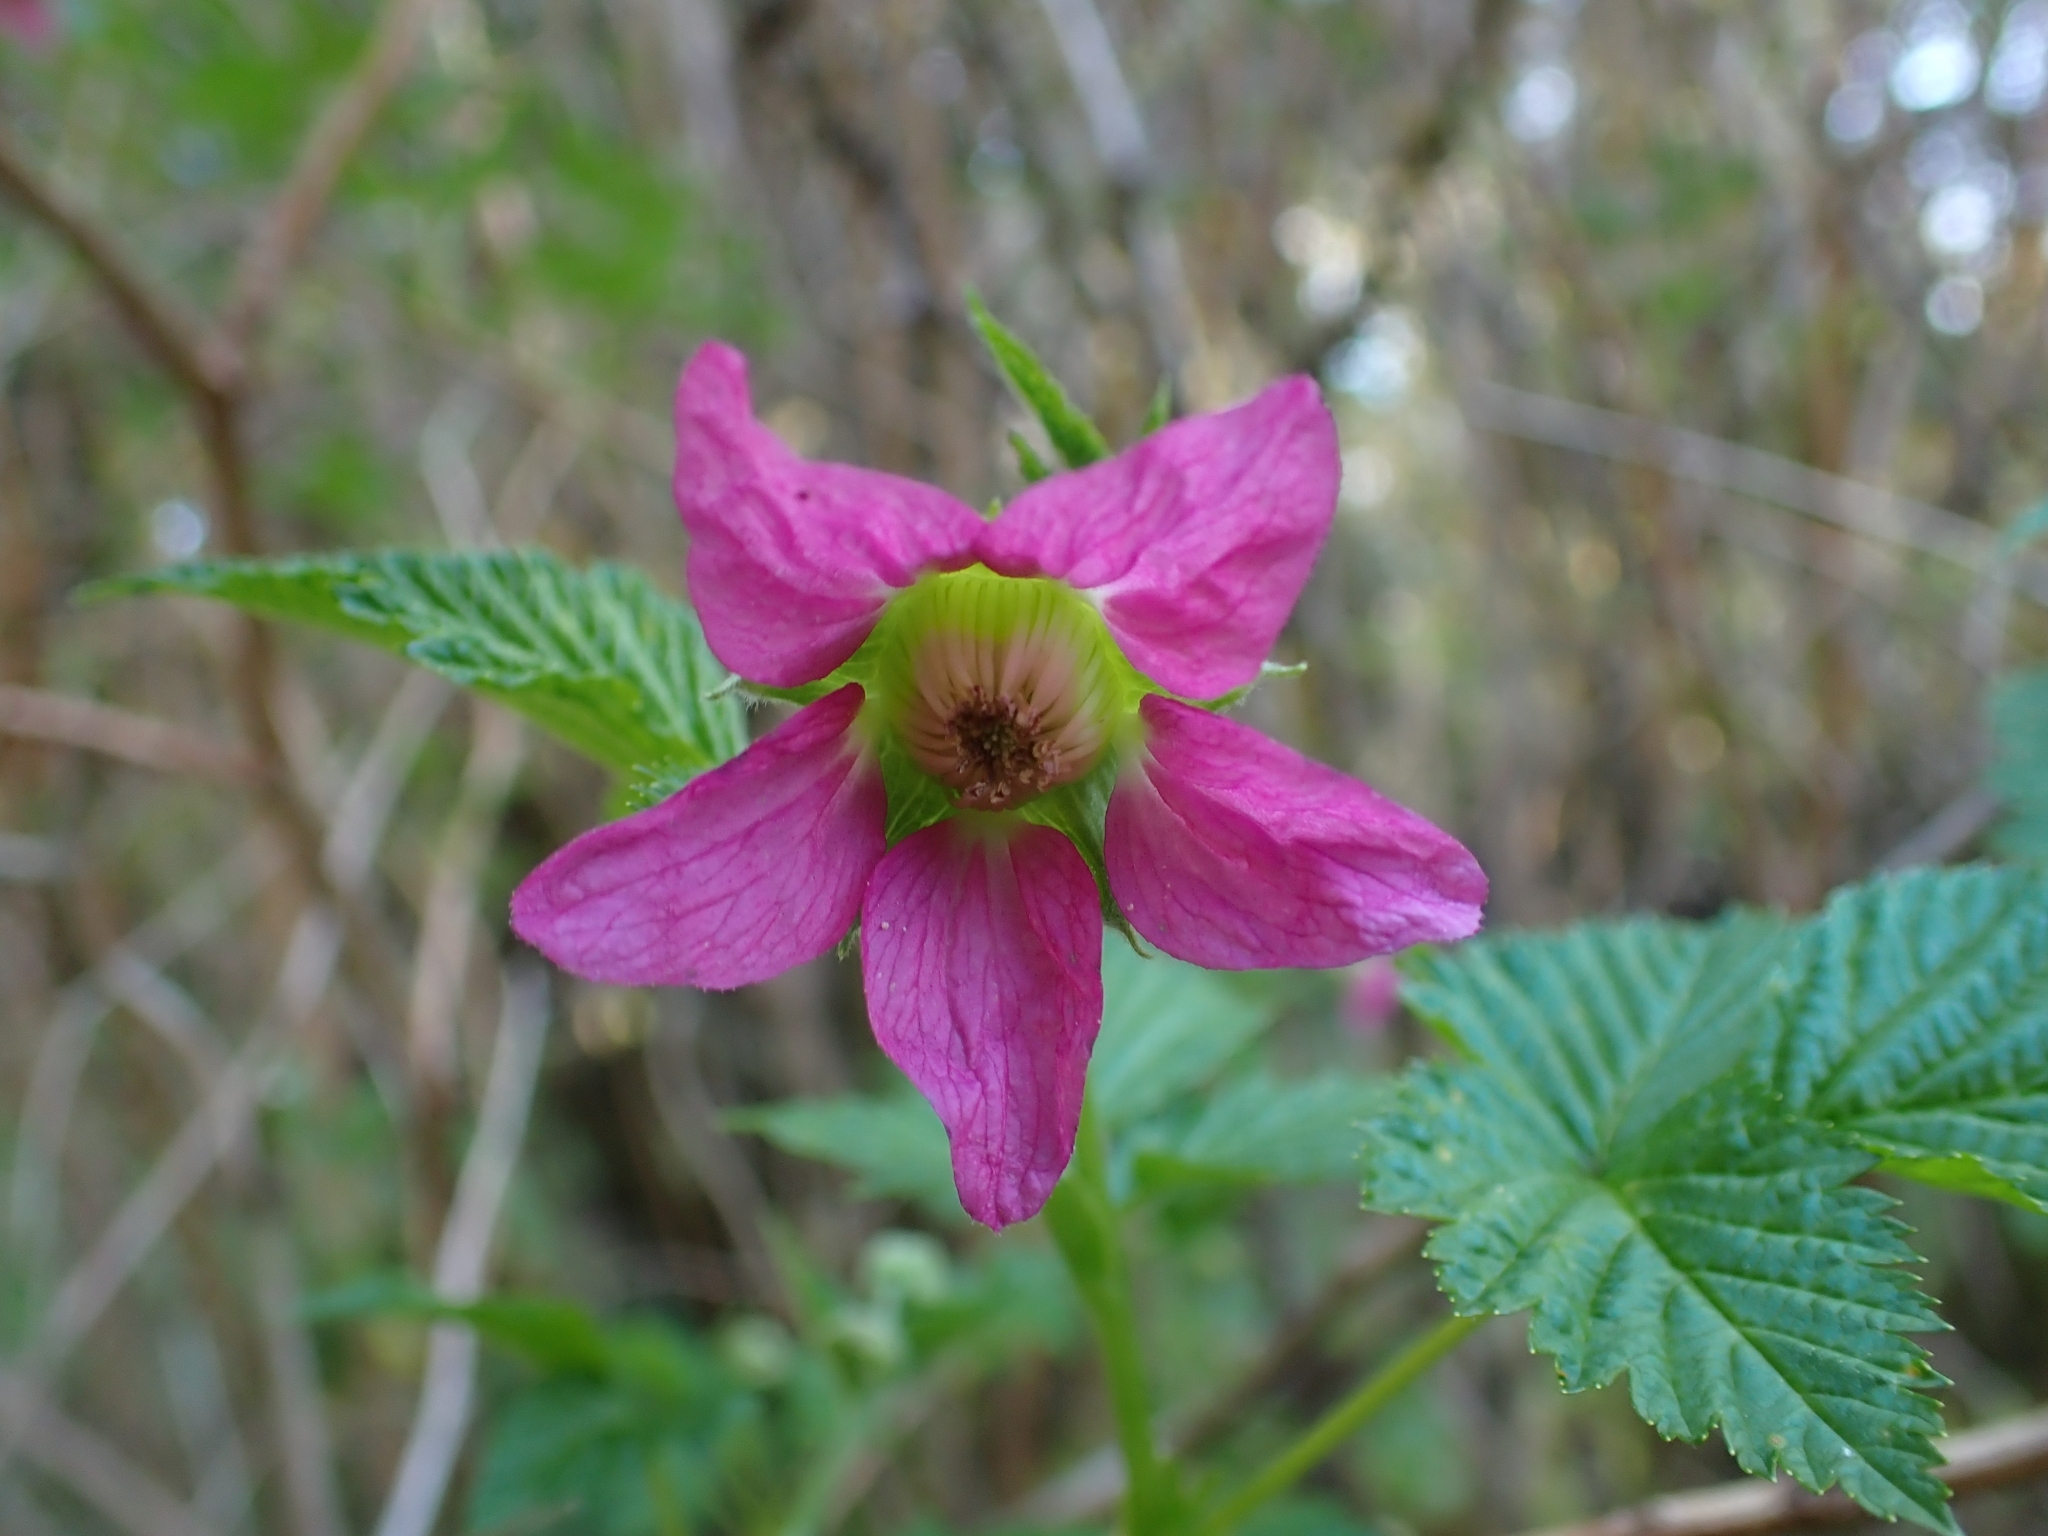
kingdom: Plantae
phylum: Tracheophyta
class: Magnoliopsida
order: Rosales
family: Rosaceae
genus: Rubus
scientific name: Rubus spectabilis
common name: Salmonberry
